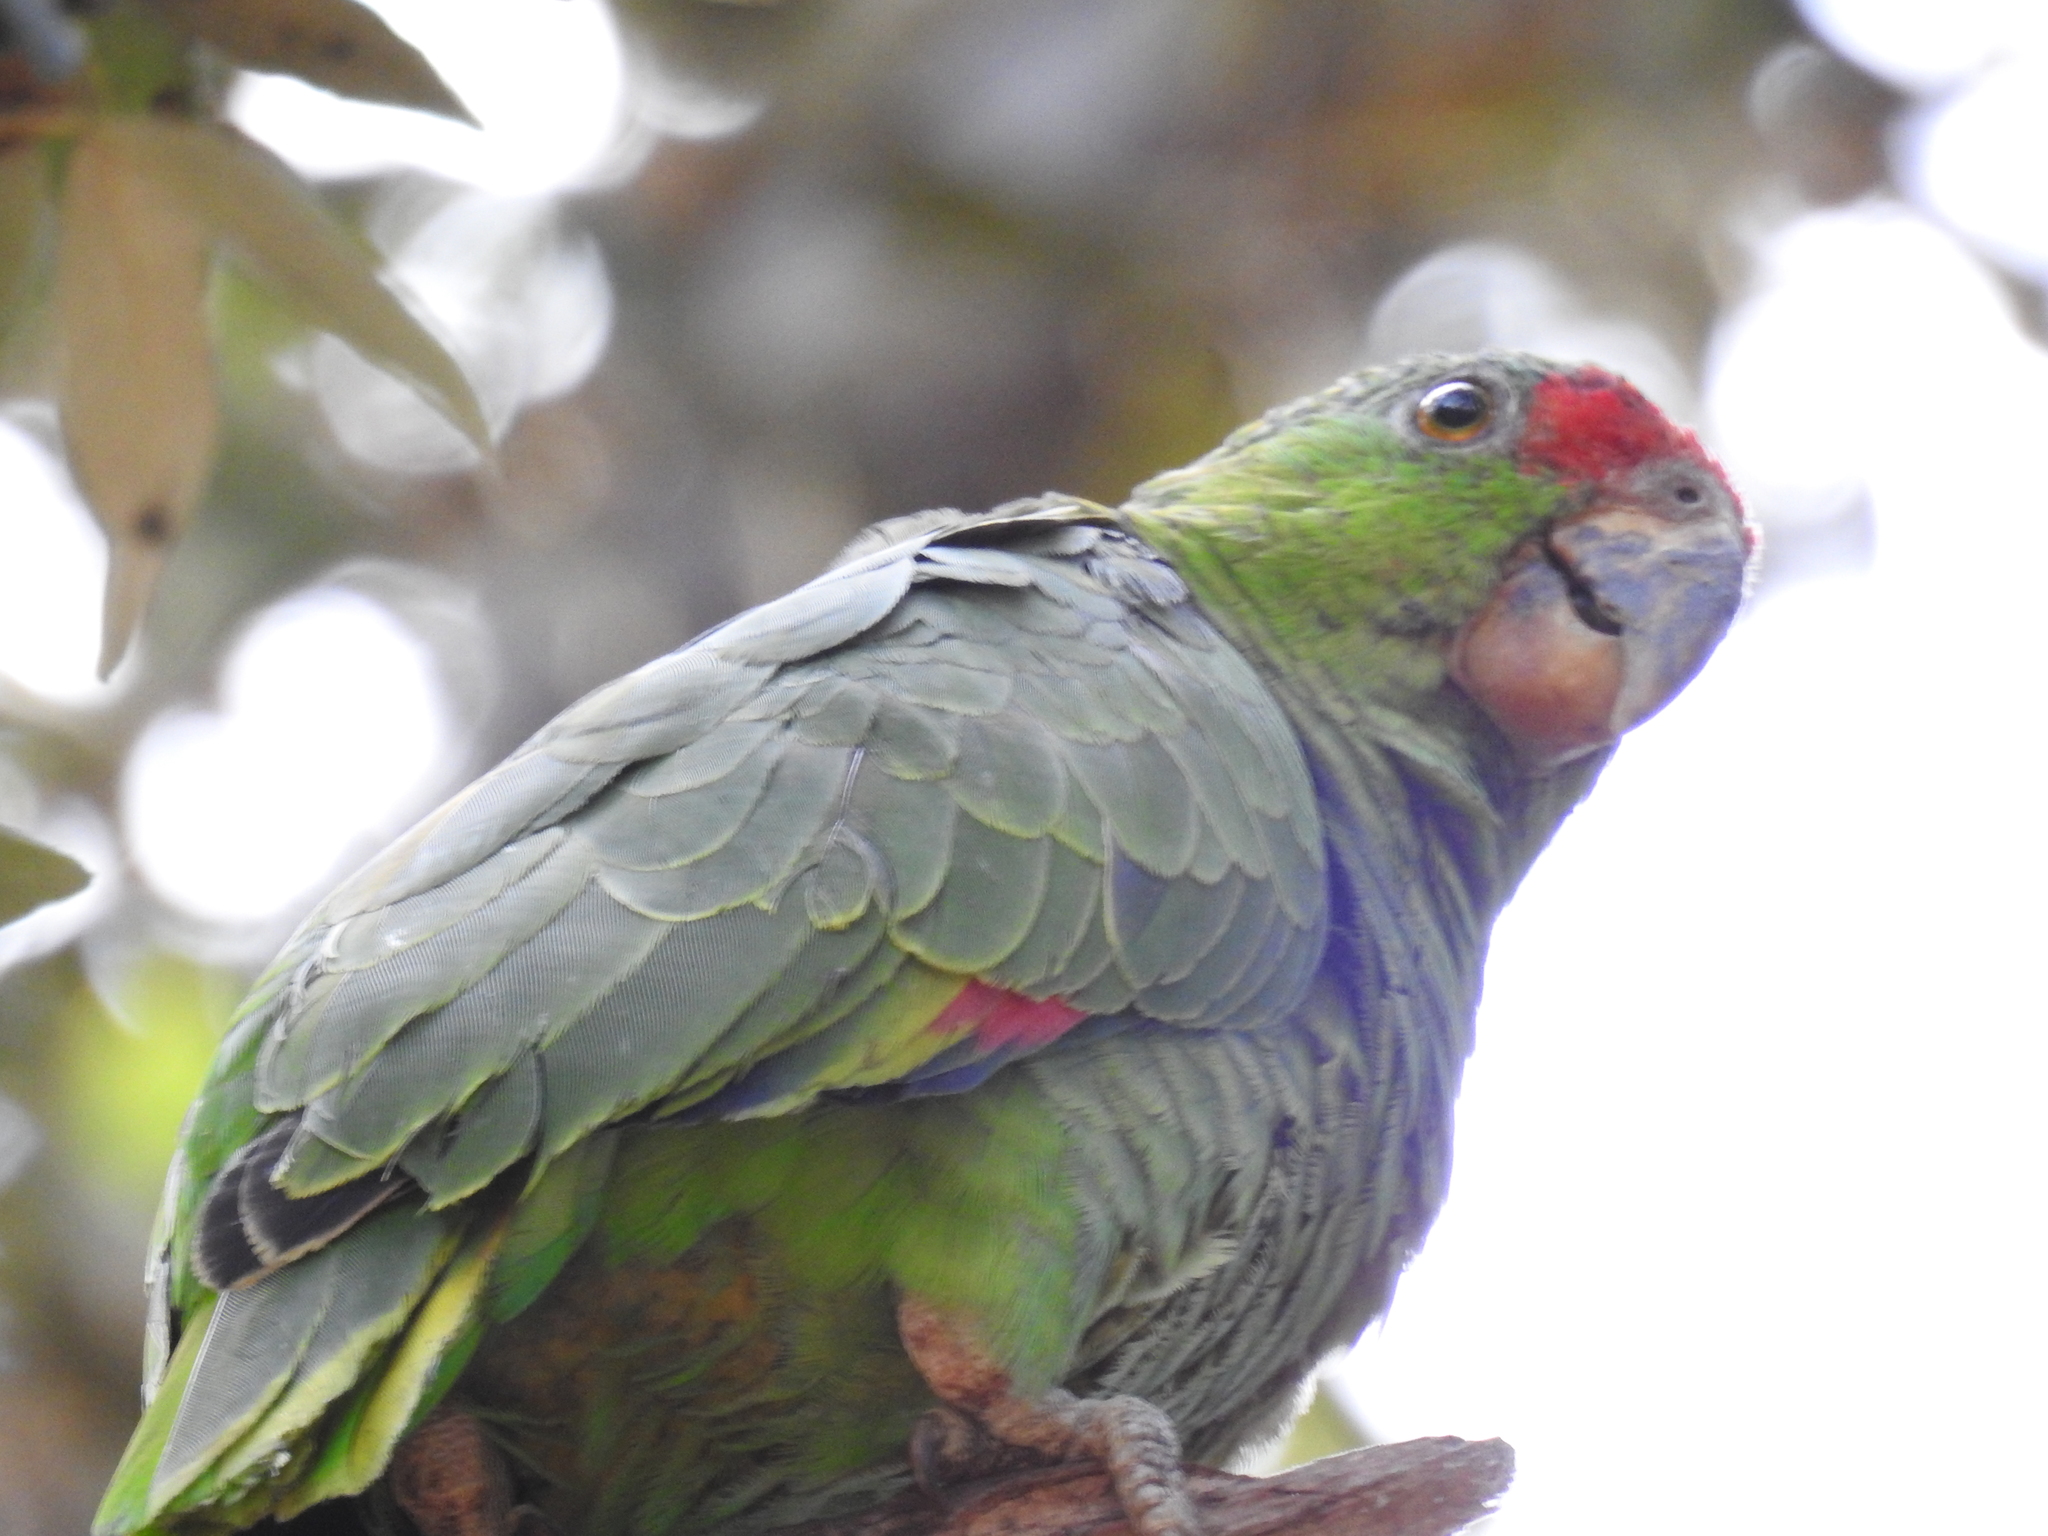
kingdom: Animalia
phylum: Chordata
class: Aves
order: Psittaciformes
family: Psittacidae
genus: Amazona
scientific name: Amazona viridigenalis
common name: Red-crowned amazon
